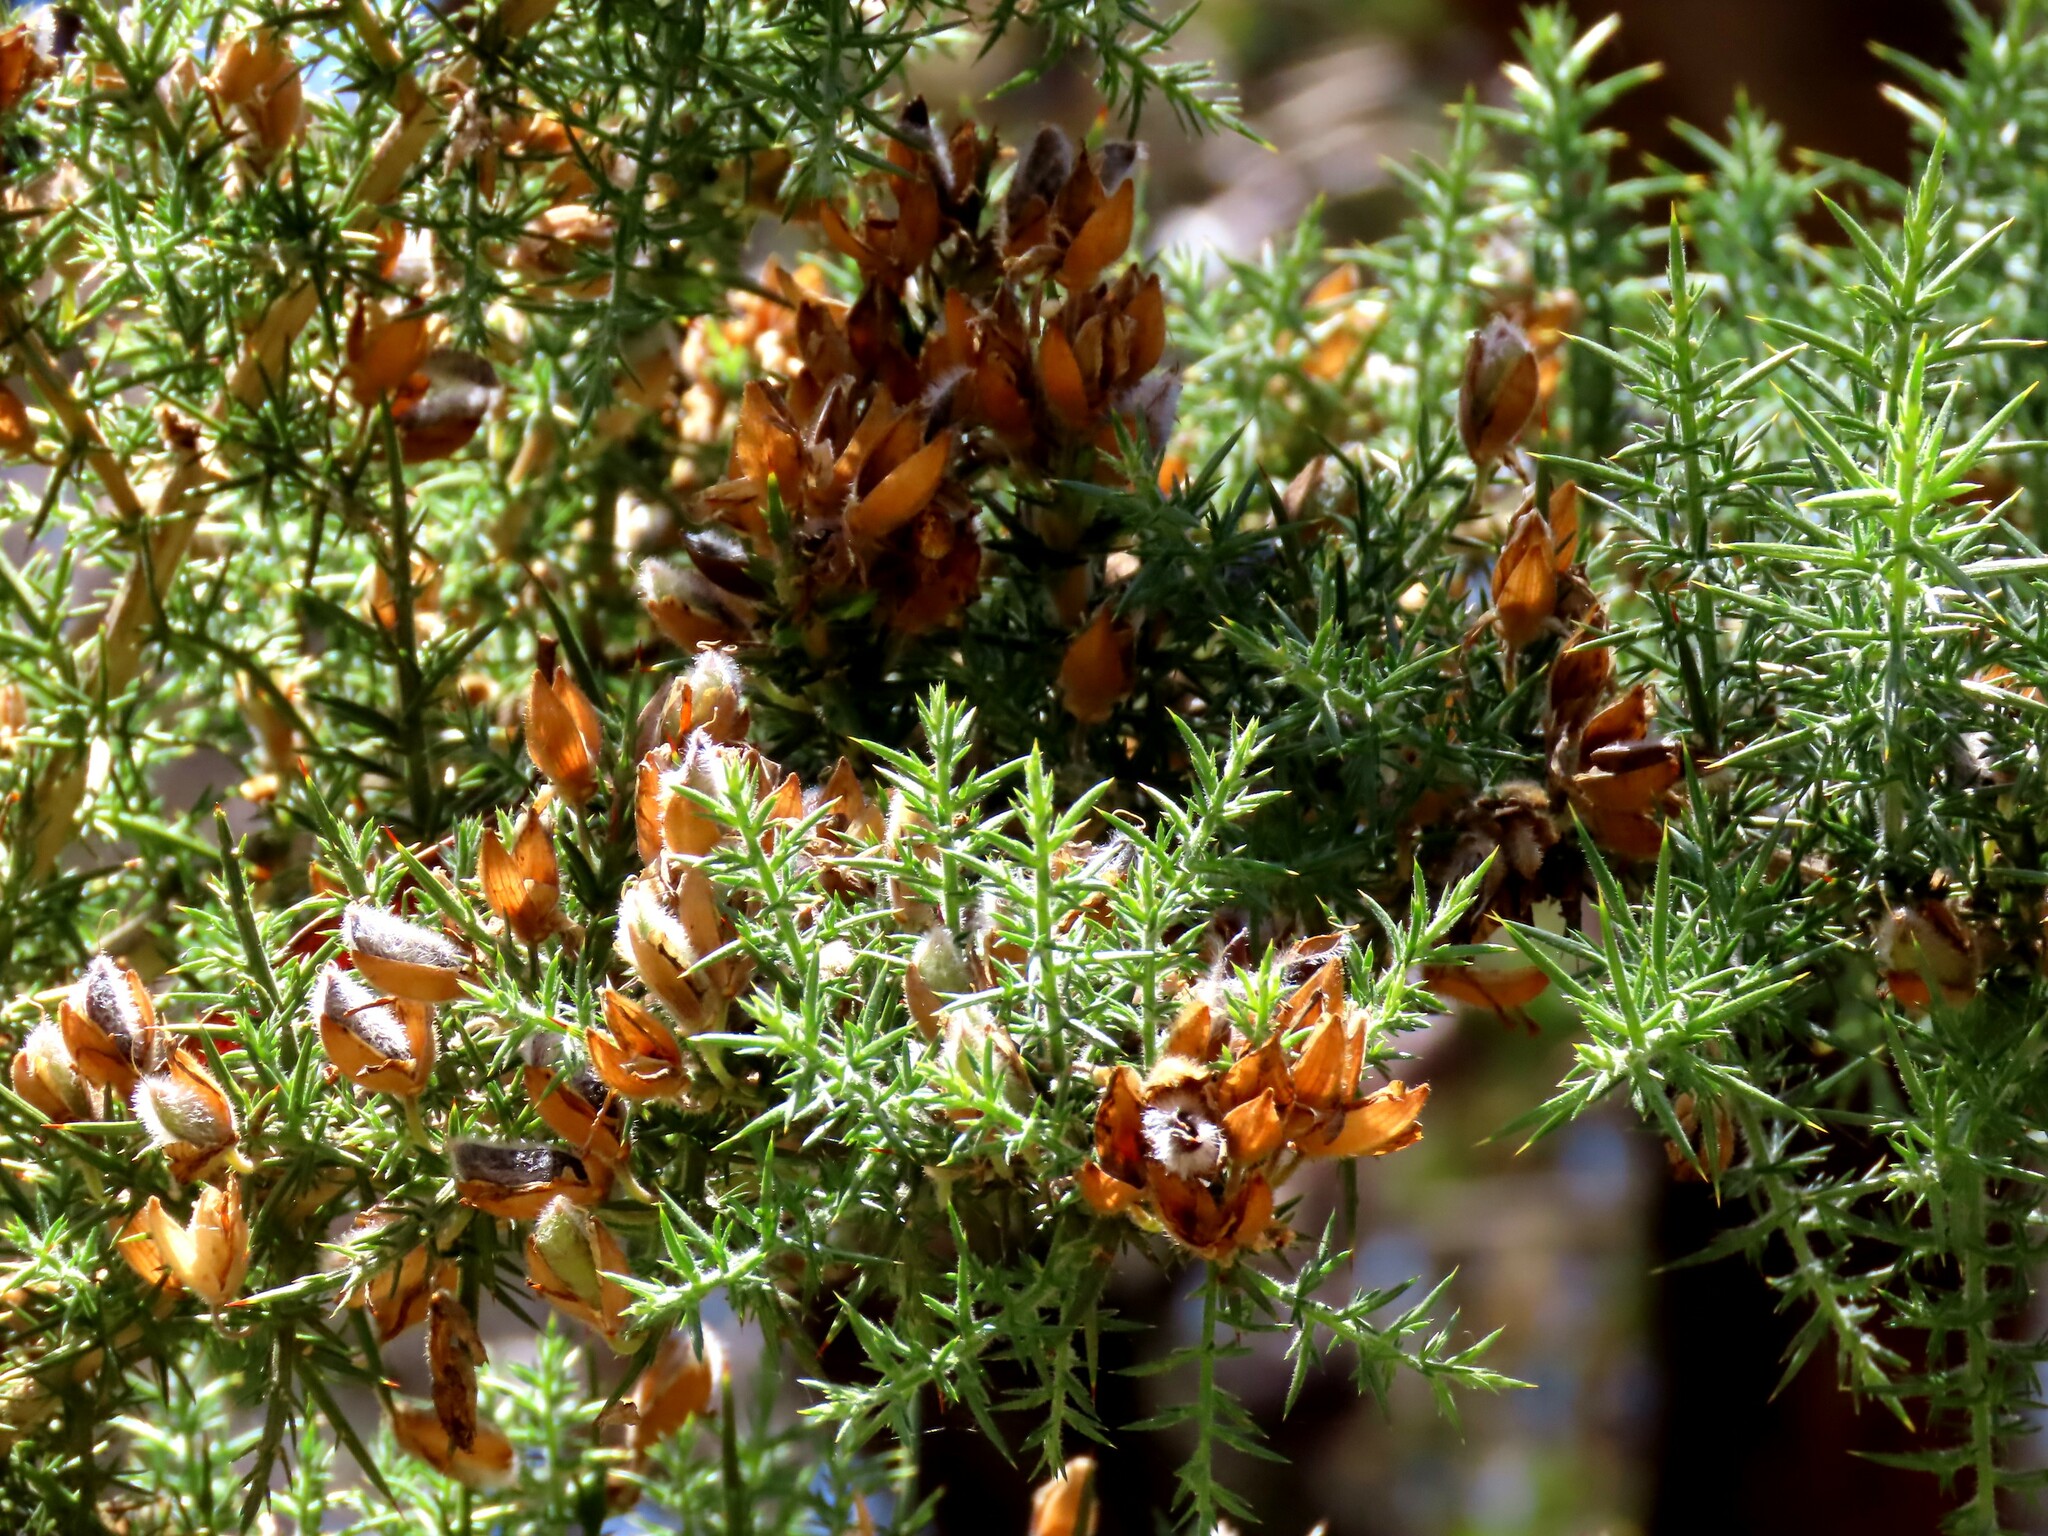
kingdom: Plantae
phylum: Tracheophyta
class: Magnoliopsida
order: Fabales
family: Fabaceae
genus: Ulex
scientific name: Ulex europaeus
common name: Common gorse
